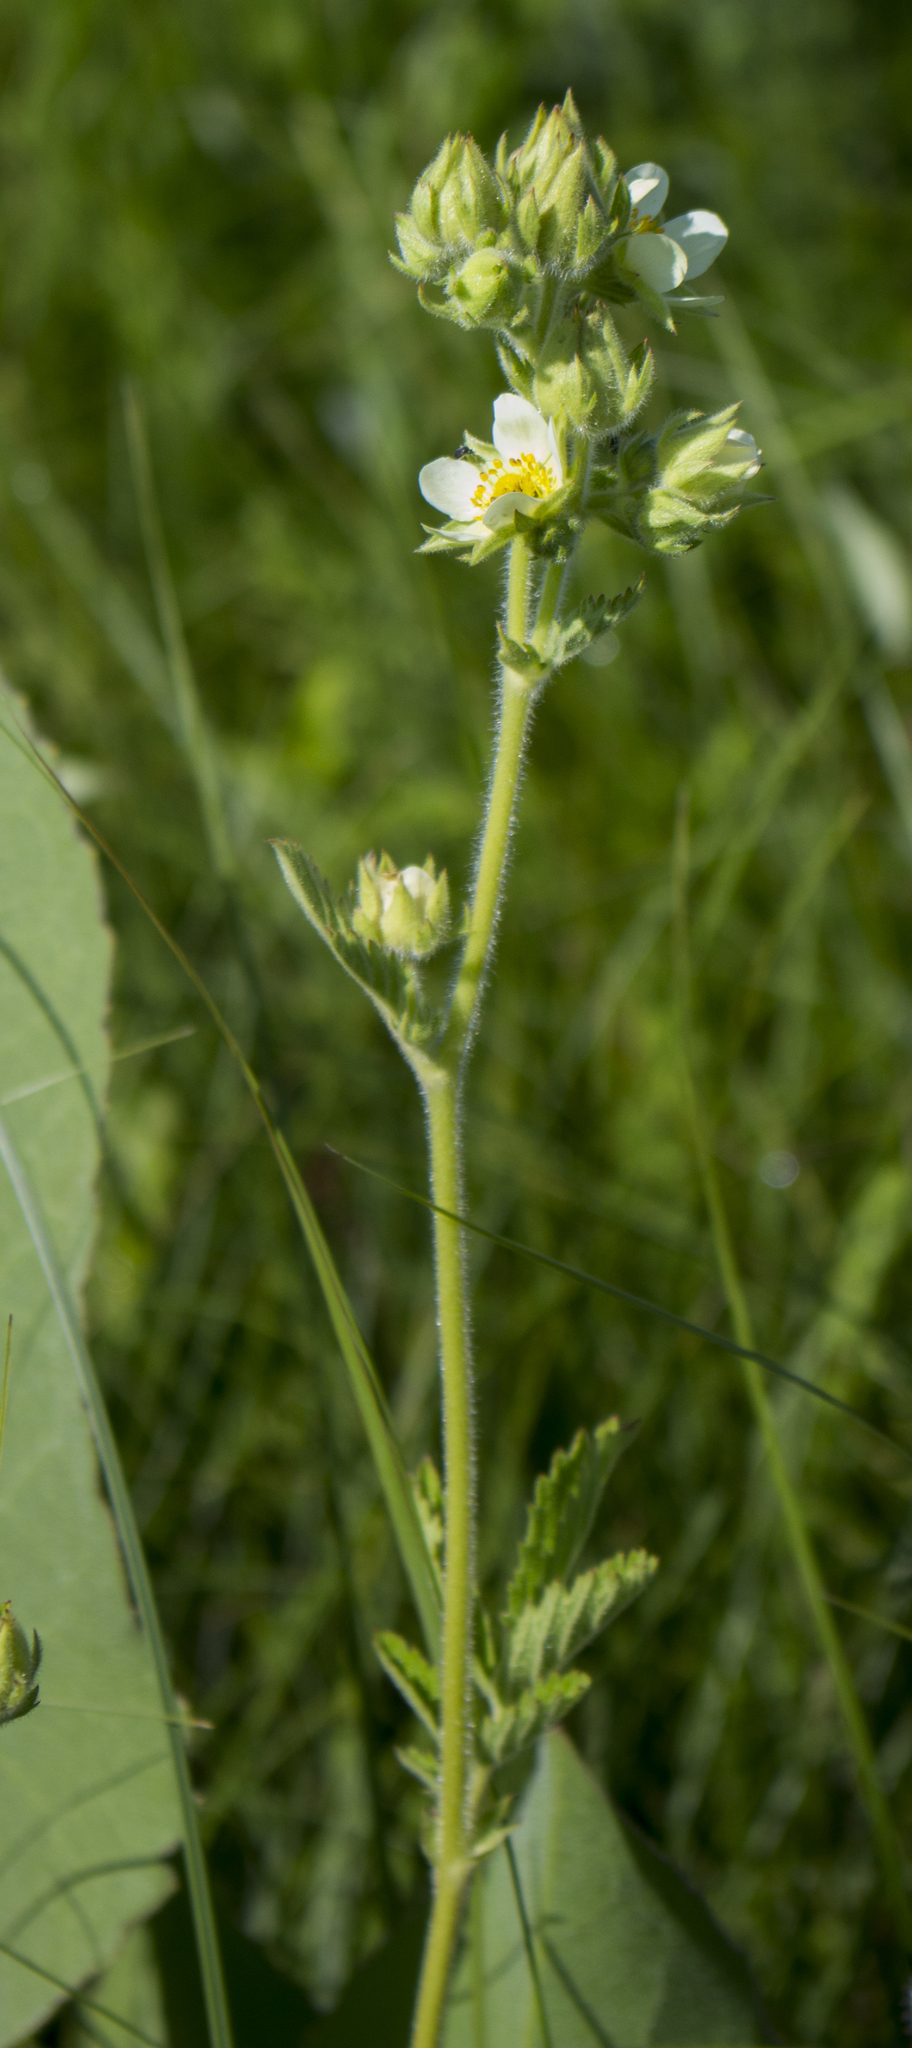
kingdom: Plantae
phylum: Tracheophyta
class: Magnoliopsida
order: Rosales
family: Rosaceae
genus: Drymocallis
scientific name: Drymocallis arguta
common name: Tall cinquefoil
